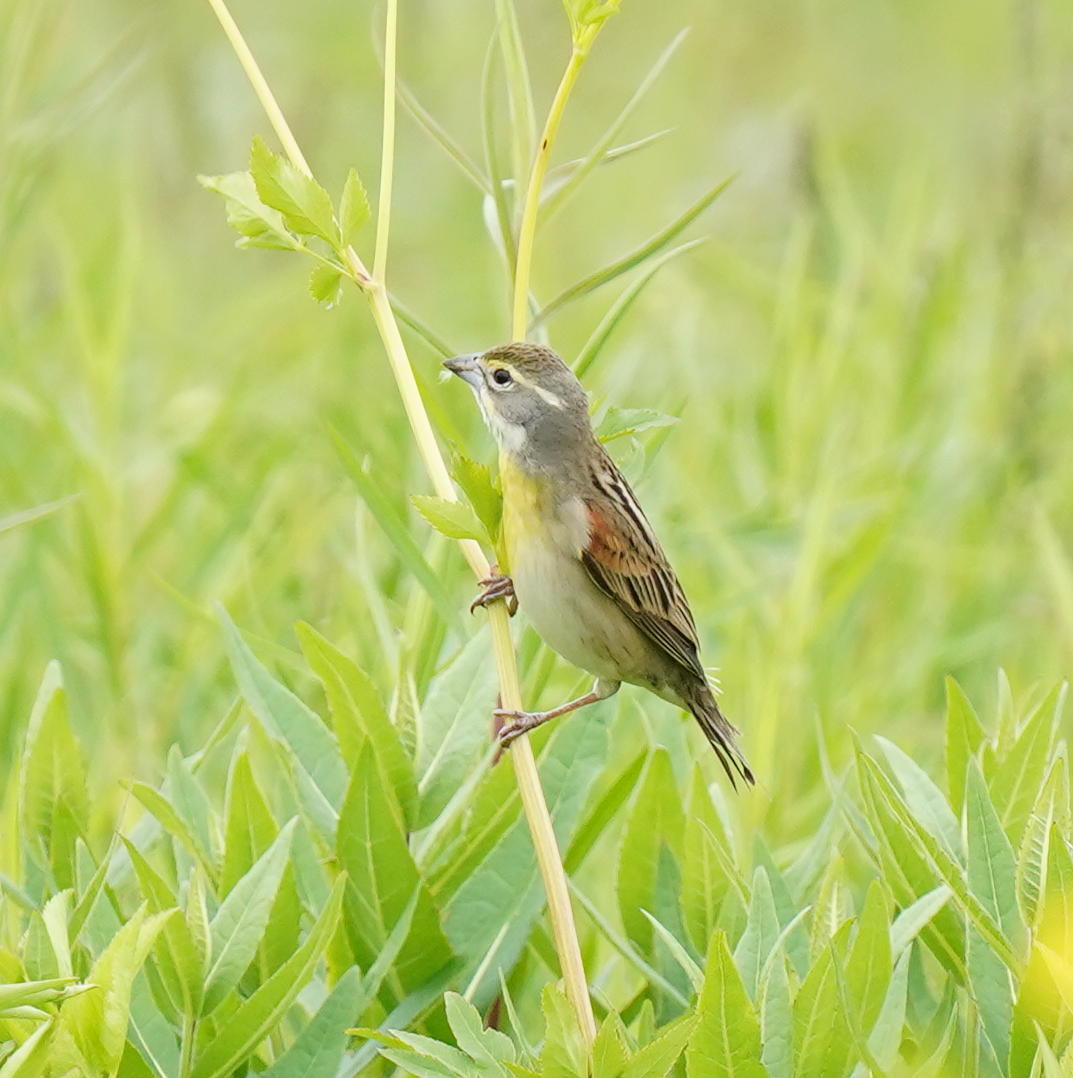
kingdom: Animalia
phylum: Chordata
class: Aves
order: Passeriformes
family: Cardinalidae
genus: Spiza
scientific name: Spiza americana
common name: Dickcissel
